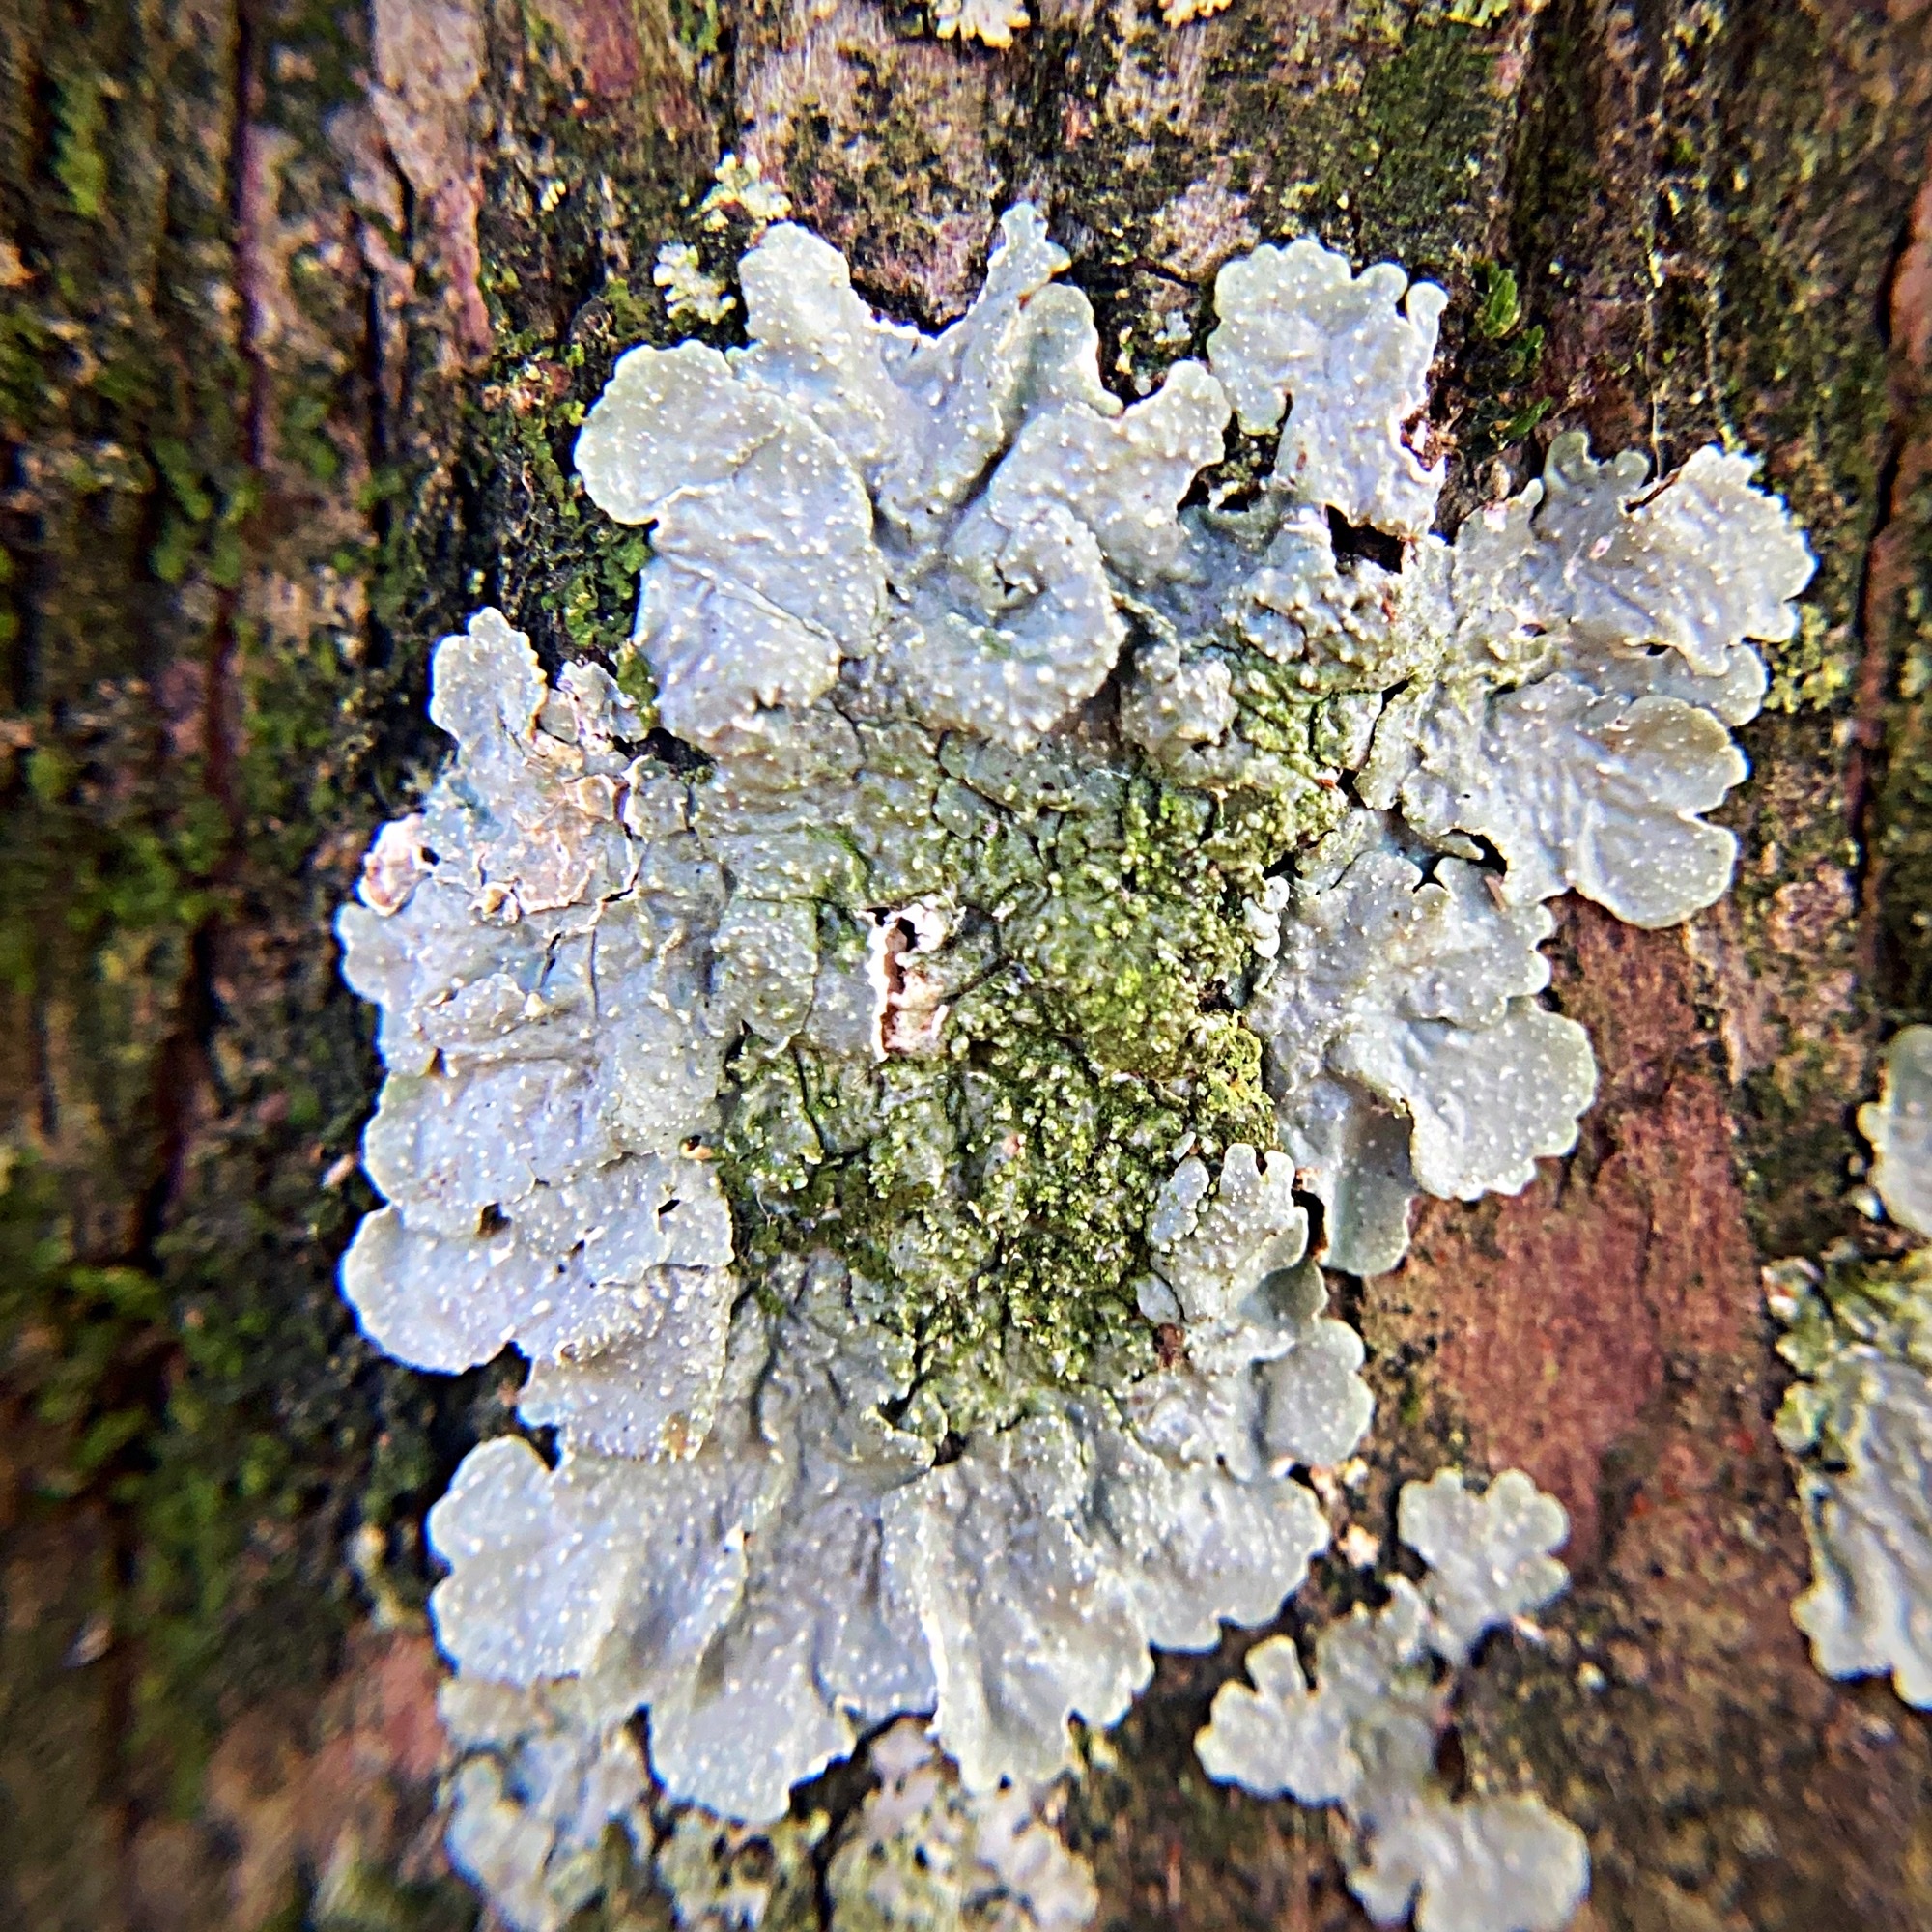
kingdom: Fungi
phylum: Ascomycota
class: Lecanoromycetes
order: Lecanorales
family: Parmeliaceae
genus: Punctelia
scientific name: Punctelia missouriensis
